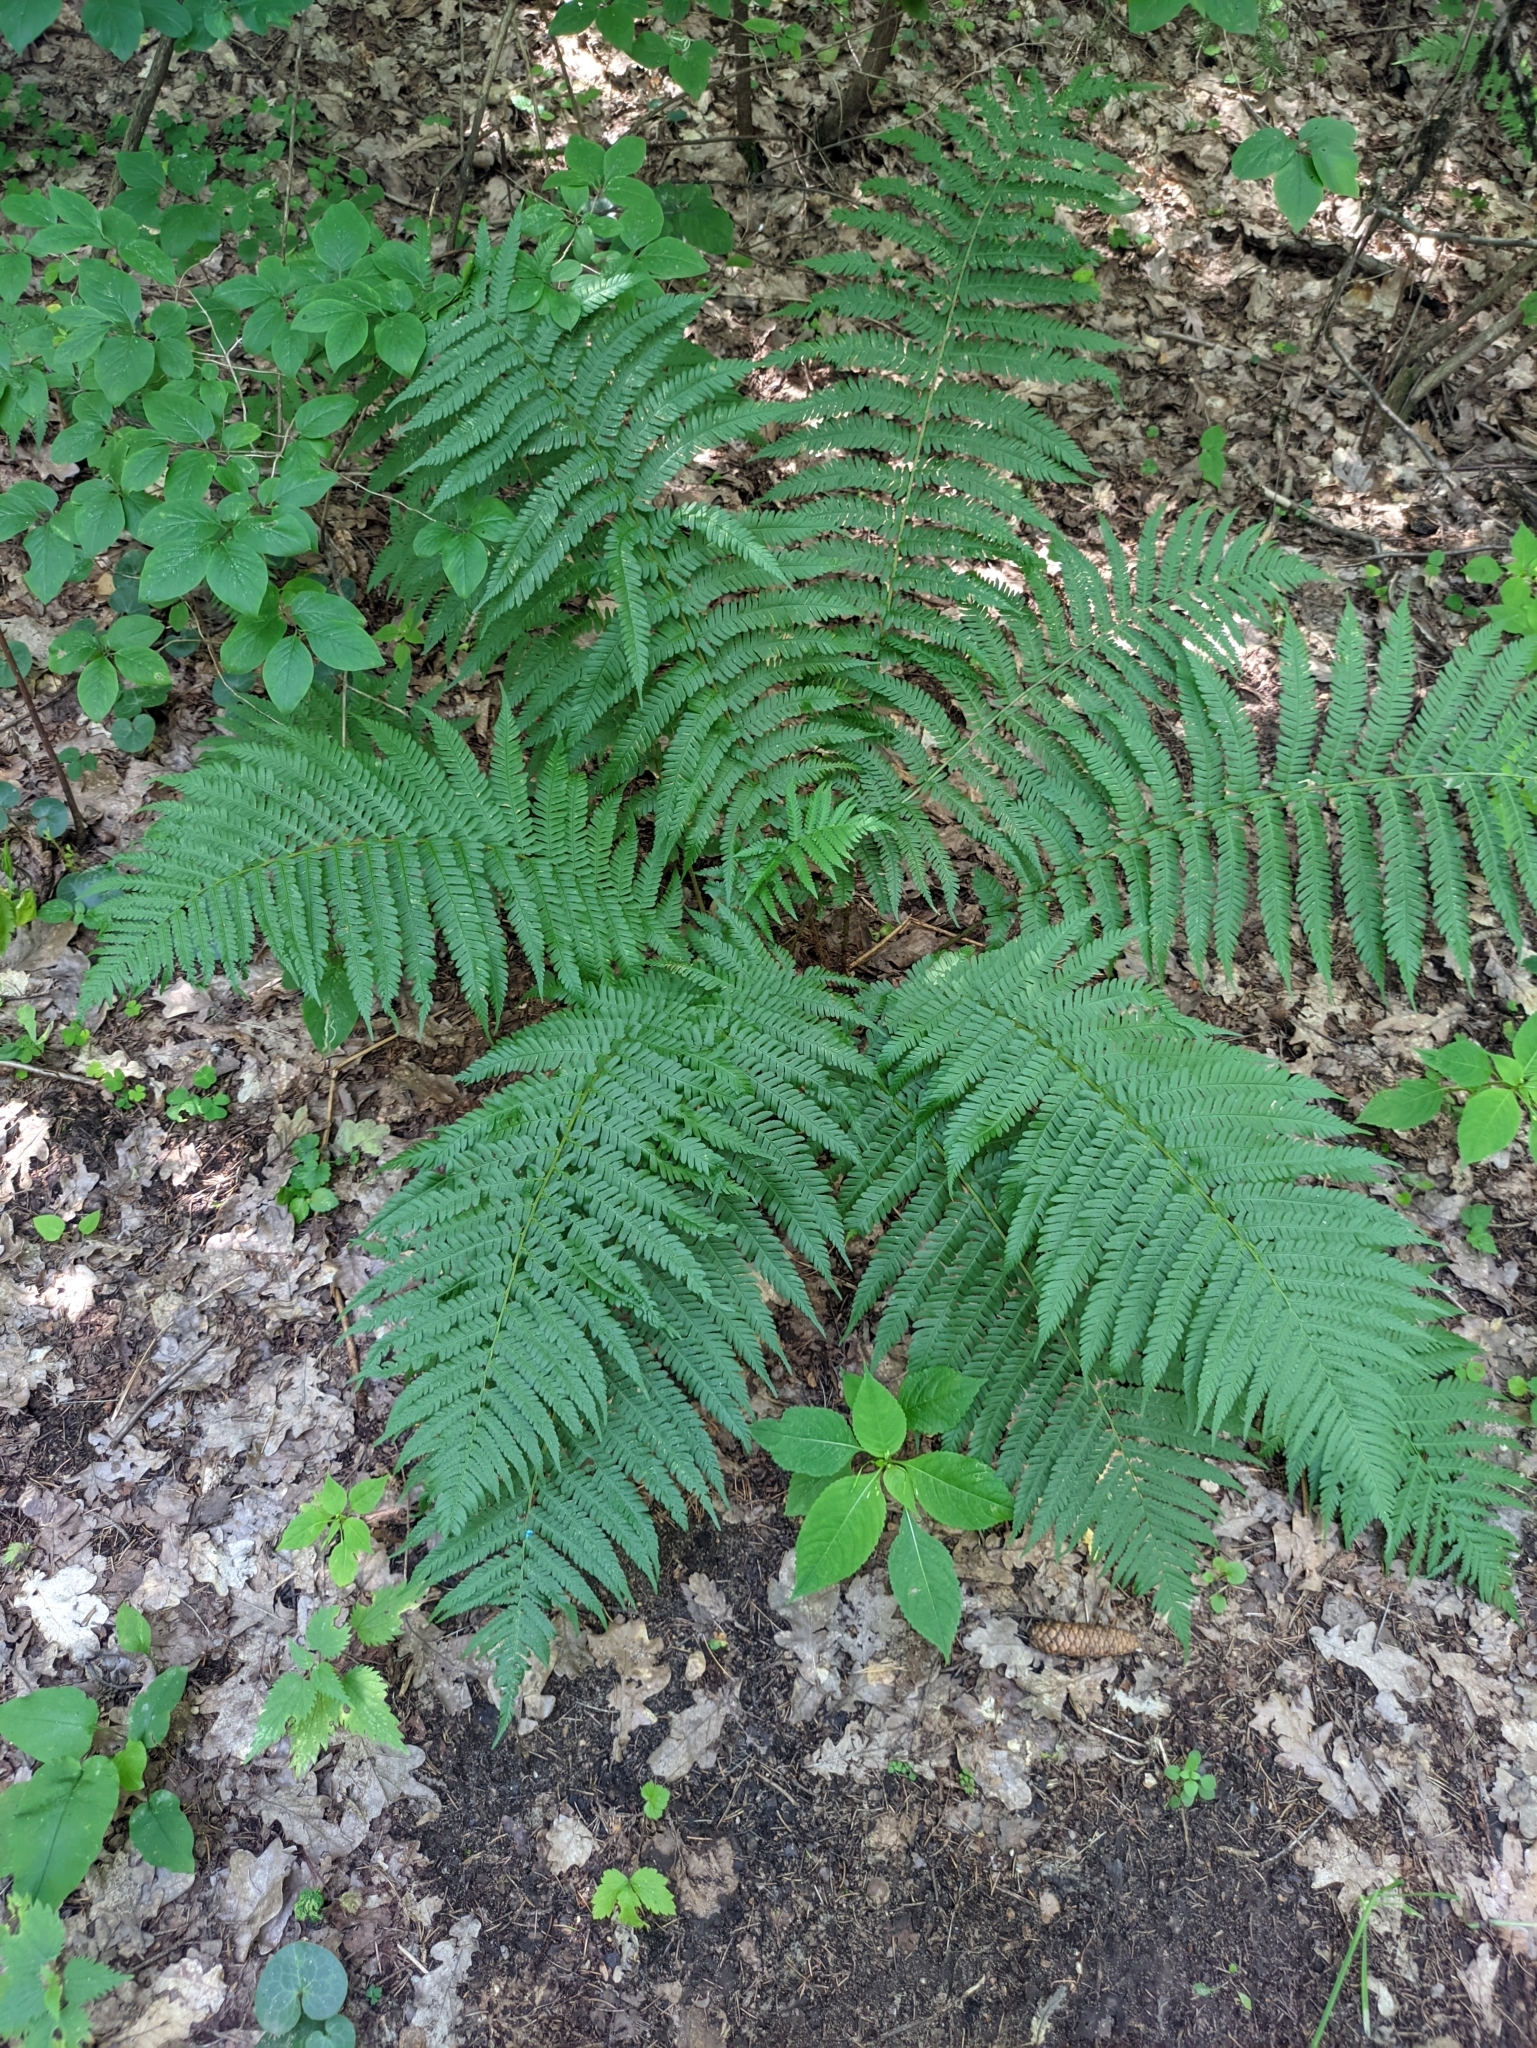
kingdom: Plantae
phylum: Tracheophyta
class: Polypodiopsida
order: Polypodiales
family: Dryopteridaceae
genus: Dryopteris
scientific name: Dryopteris filix-mas
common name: Male fern
